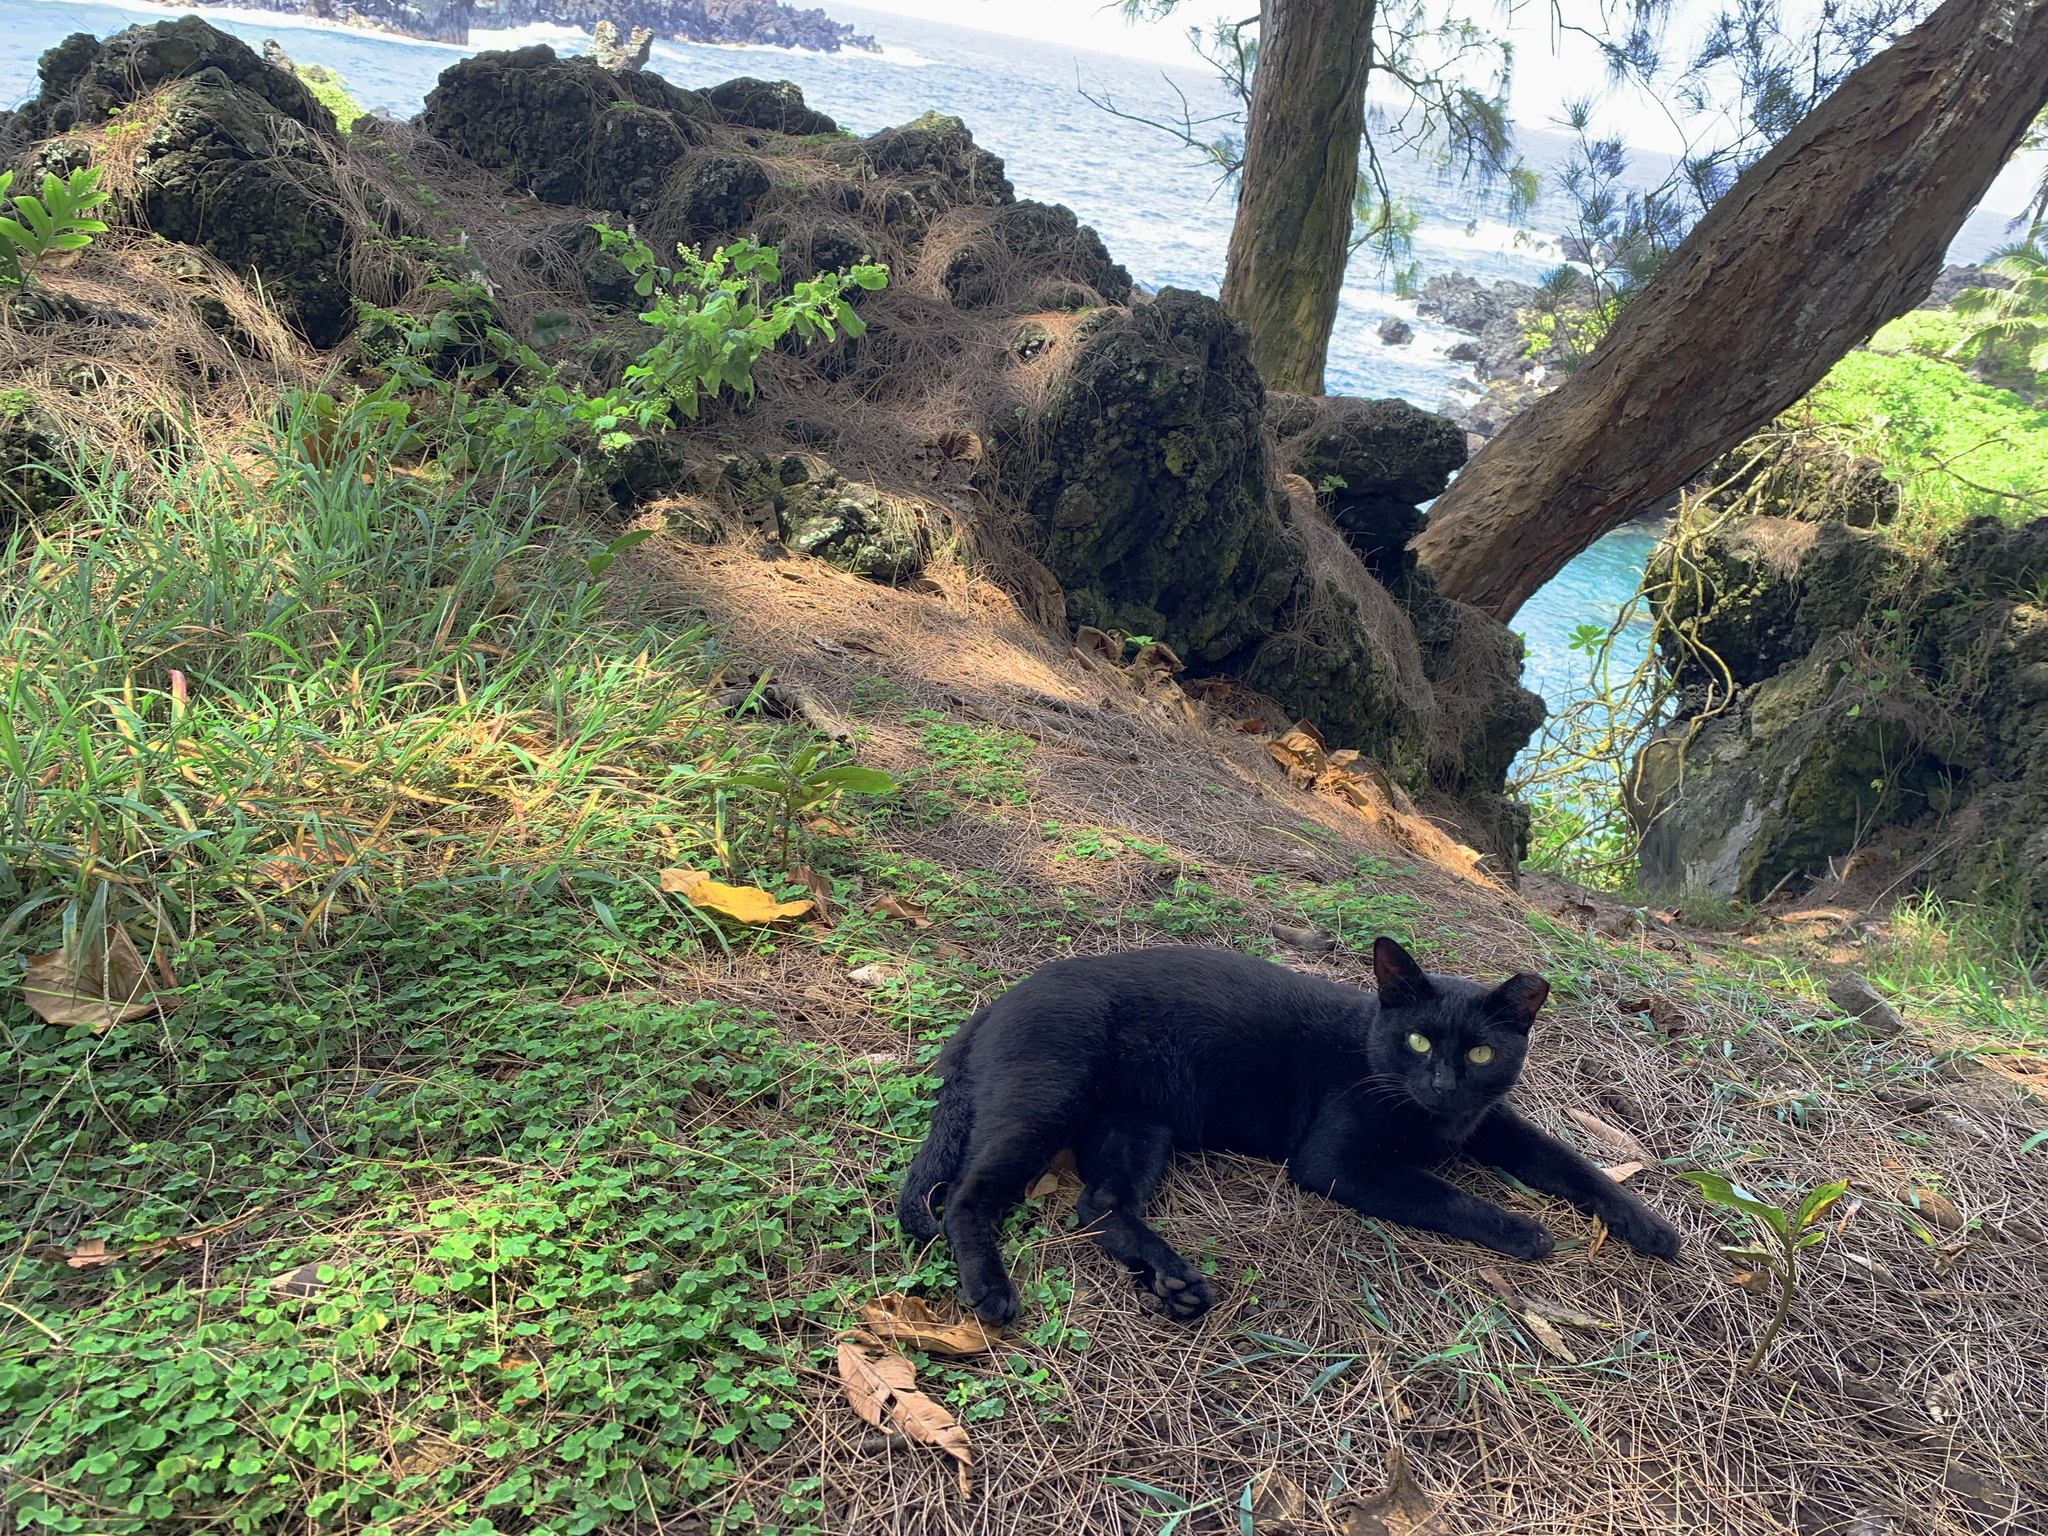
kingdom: Animalia
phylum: Chordata
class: Mammalia
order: Carnivora
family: Felidae
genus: Felis
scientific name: Felis catus
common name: Domestic cat
